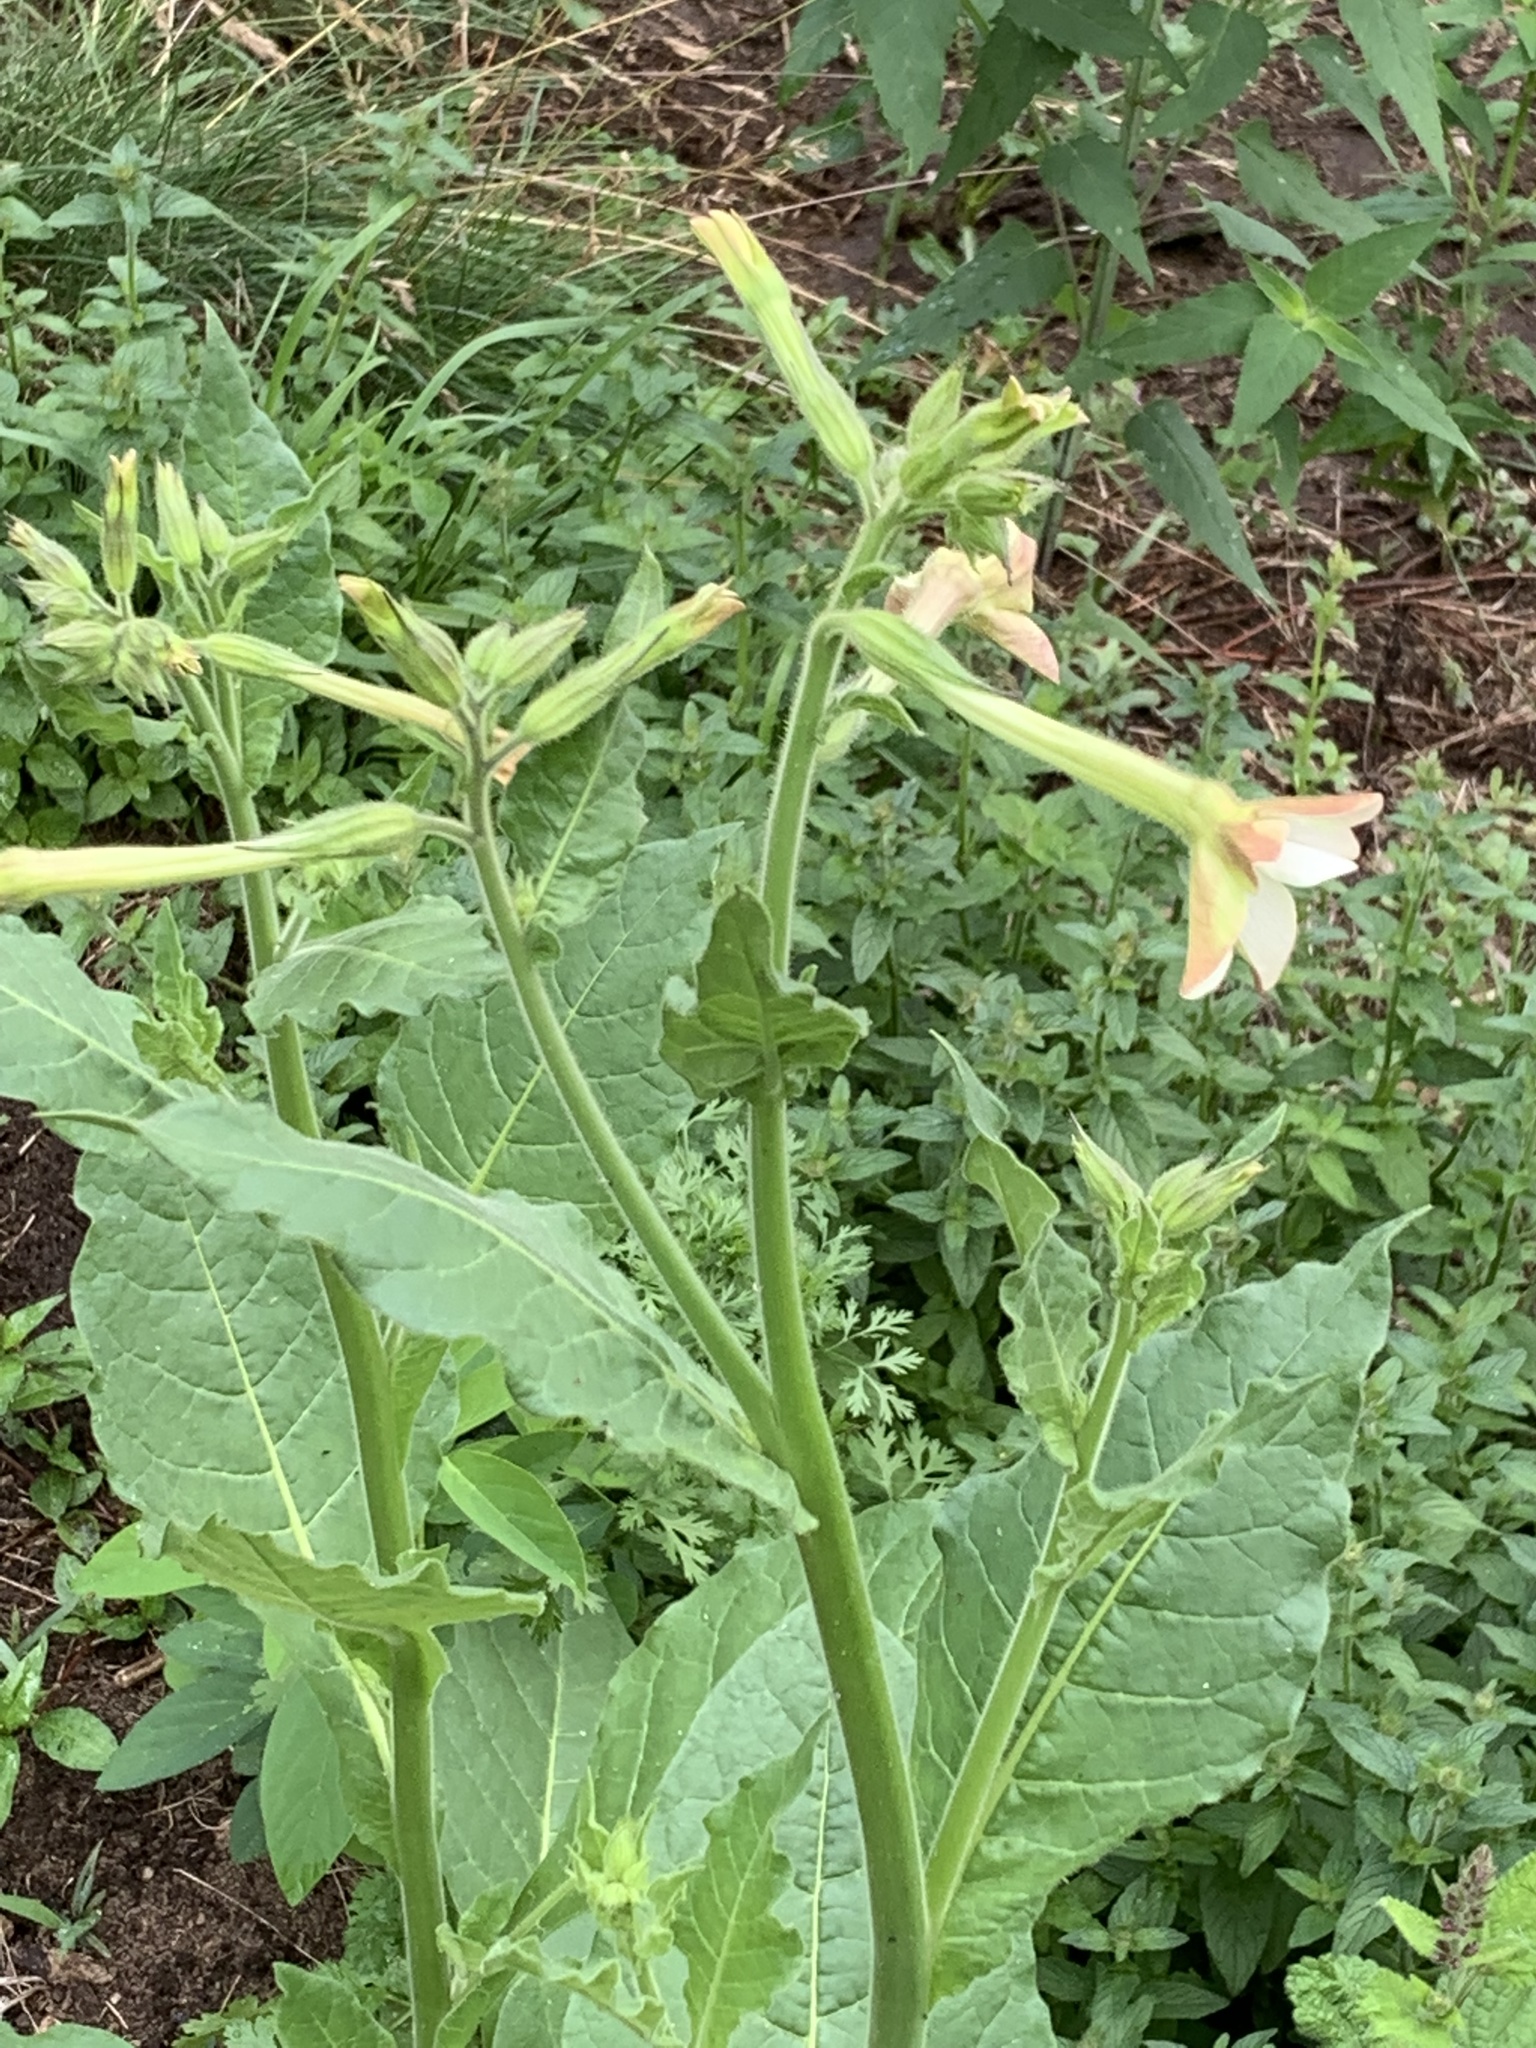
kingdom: Plantae
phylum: Tracheophyta
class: Magnoliopsida
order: Solanales
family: Solanaceae
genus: Nicotiana
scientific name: Nicotiana quadrivalvis
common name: Indian tobacco
